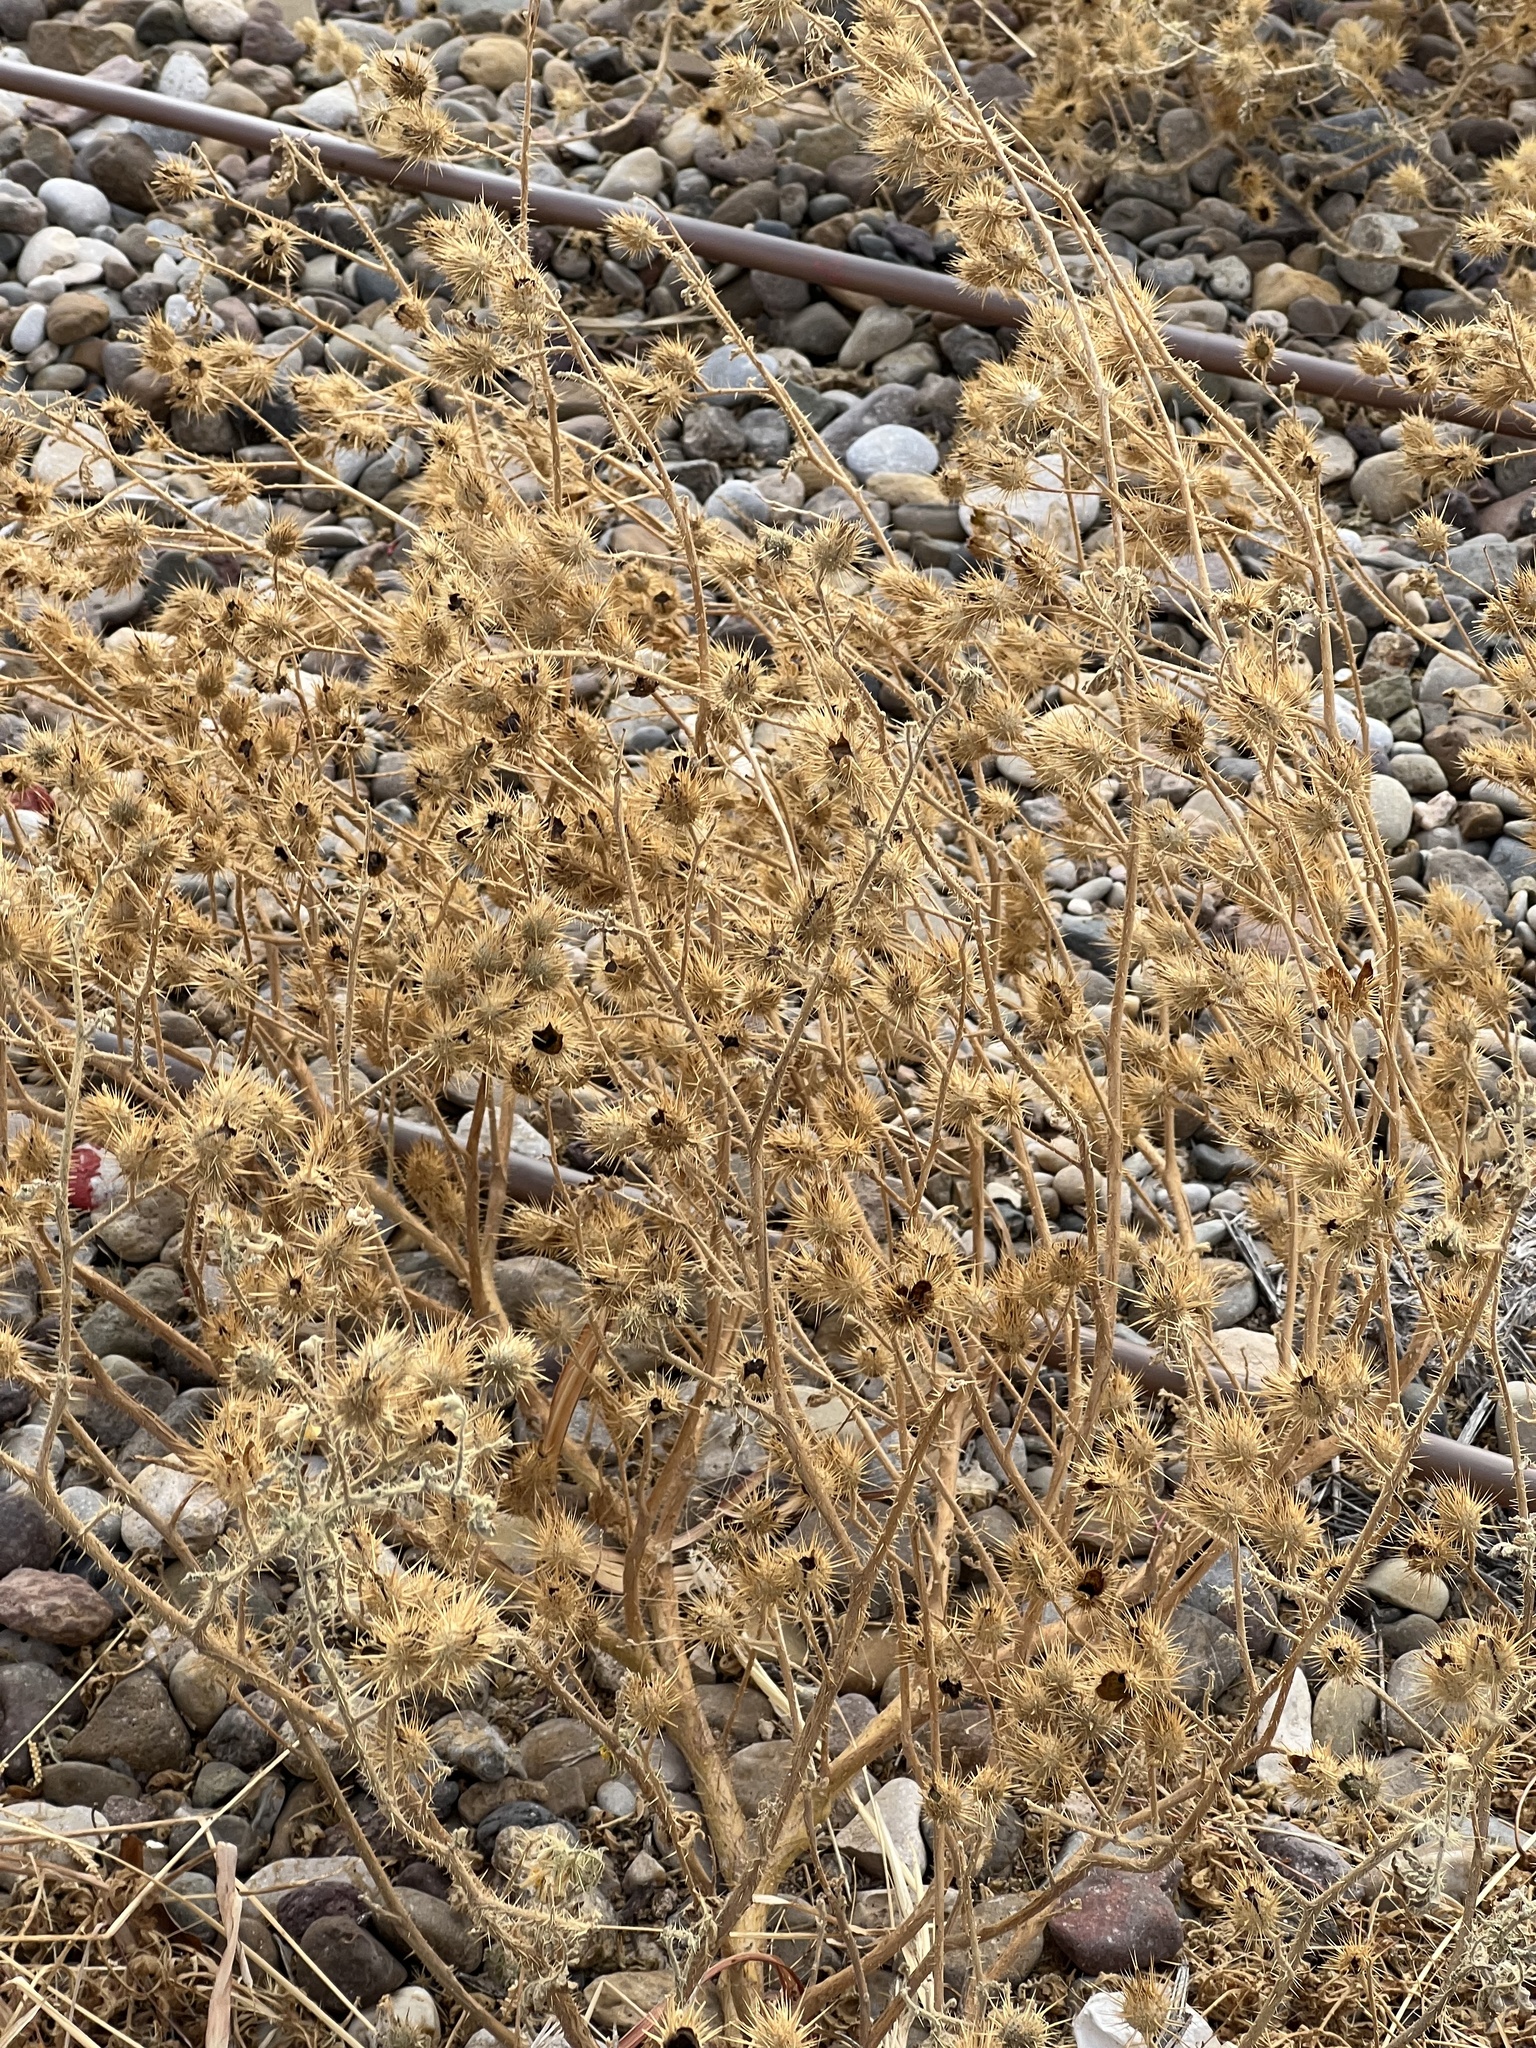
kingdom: Plantae
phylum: Tracheophyta
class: Magnoliopsida
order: Solanales
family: Solanaceae
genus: Solanum
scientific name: Solanum angustifolium
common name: Buffalobur nightshade
